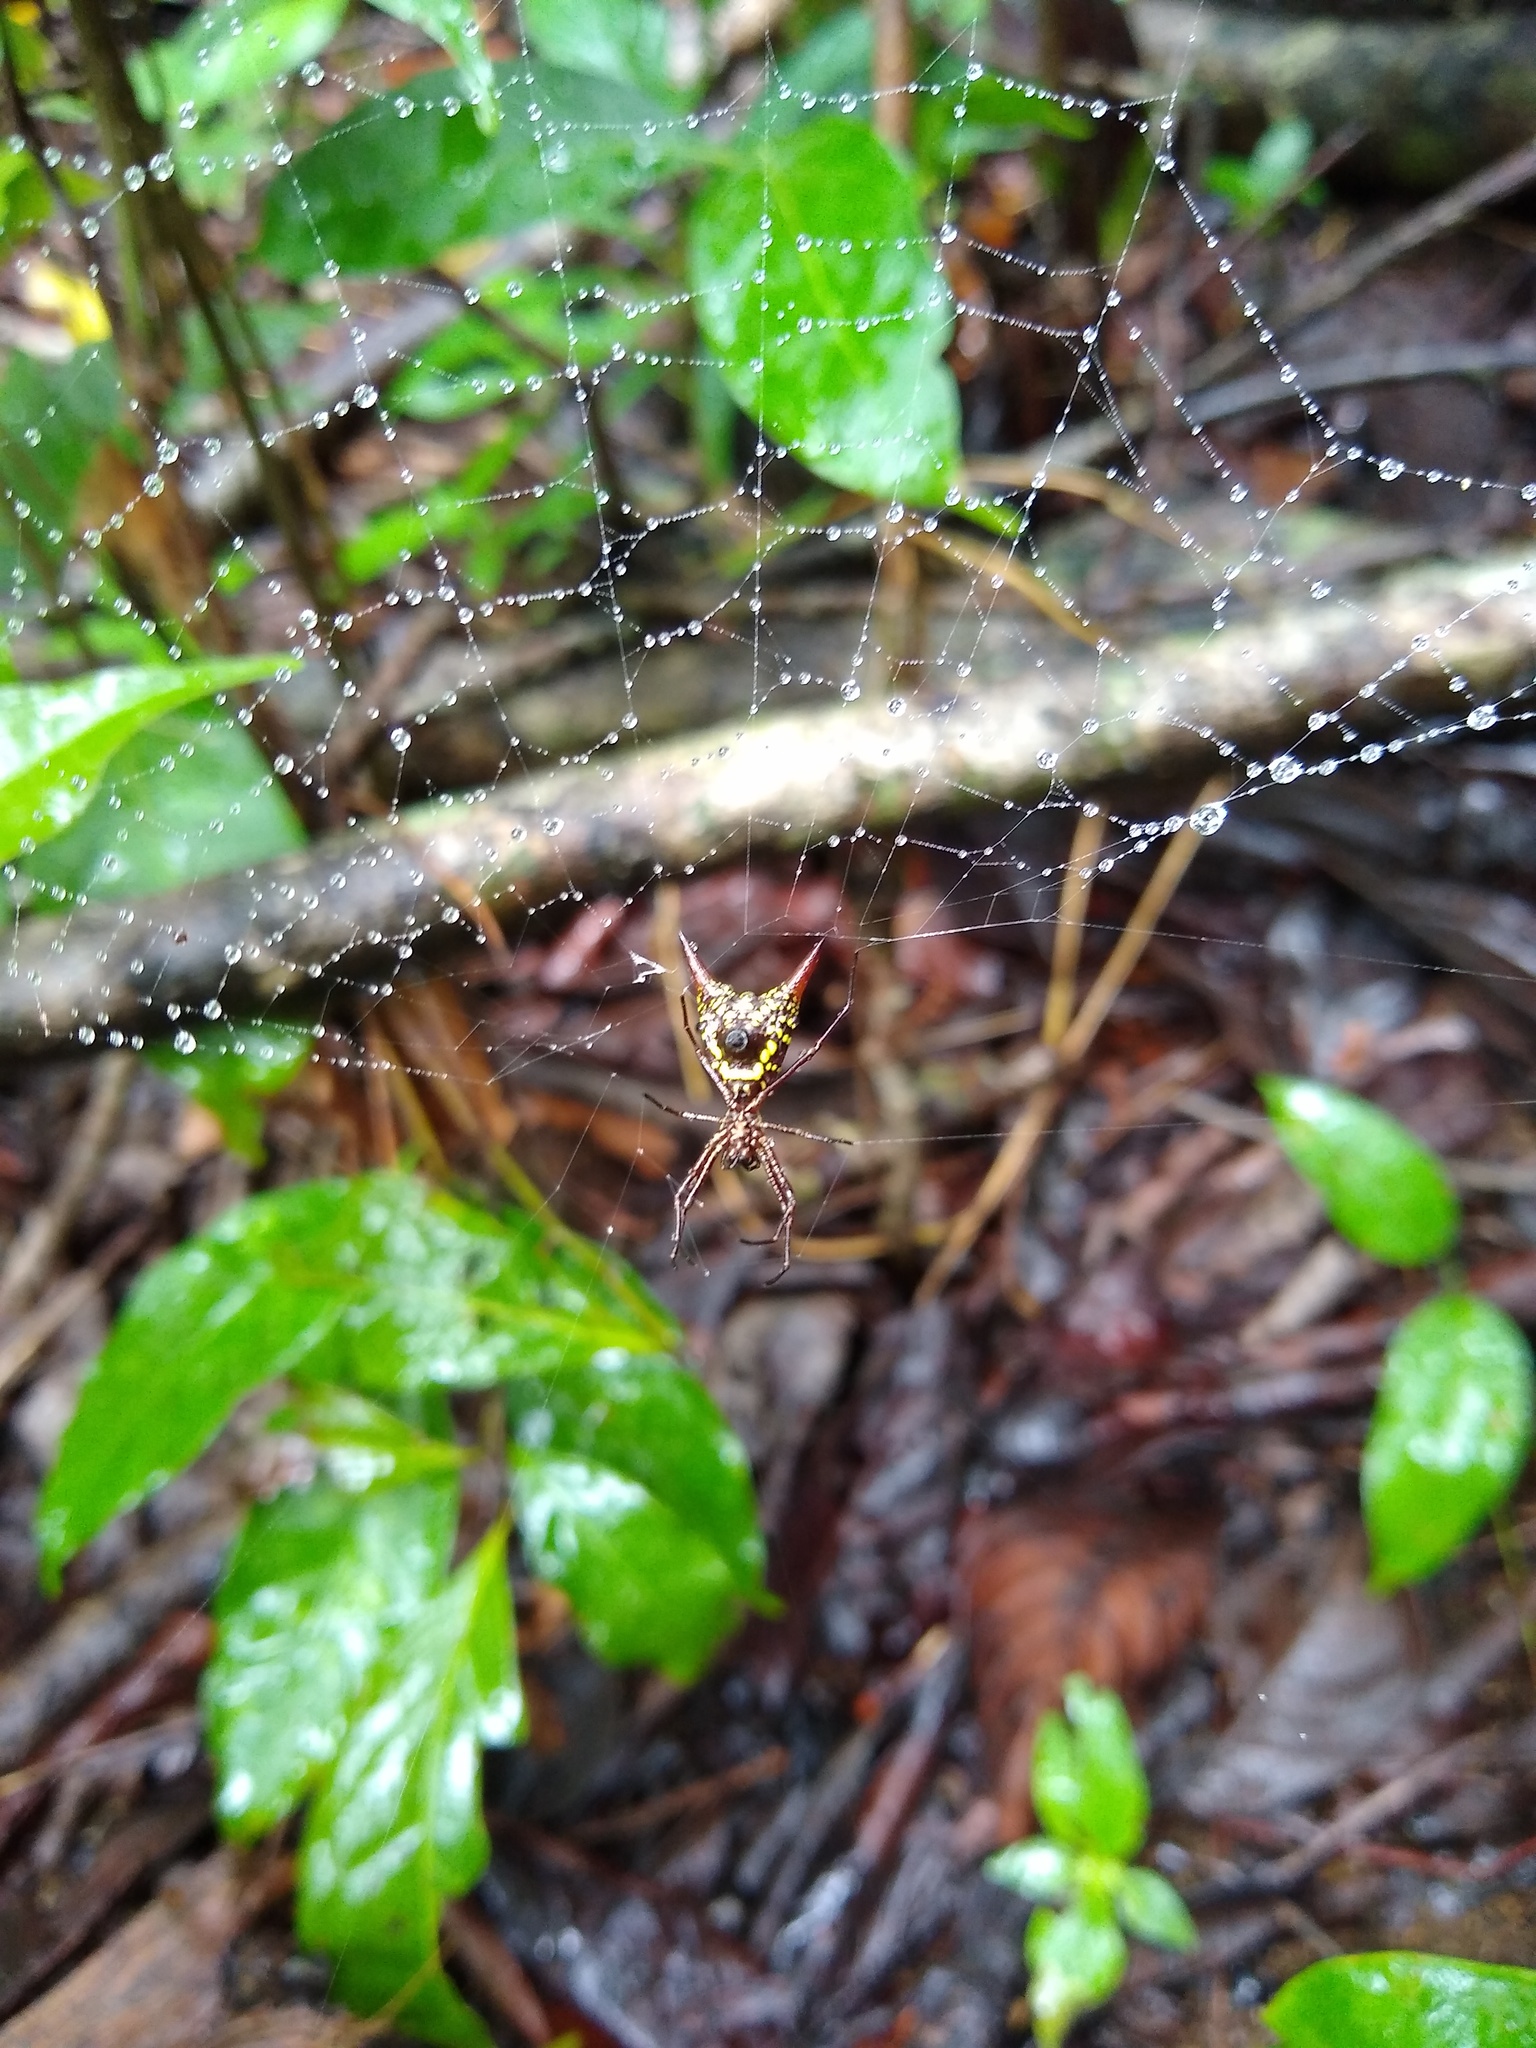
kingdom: Animalia
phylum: Arthropoda
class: Arachnida
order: Araneae
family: Araneidae
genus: Micrathena
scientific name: Micrathena sexspinosa
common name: Orb weavers
